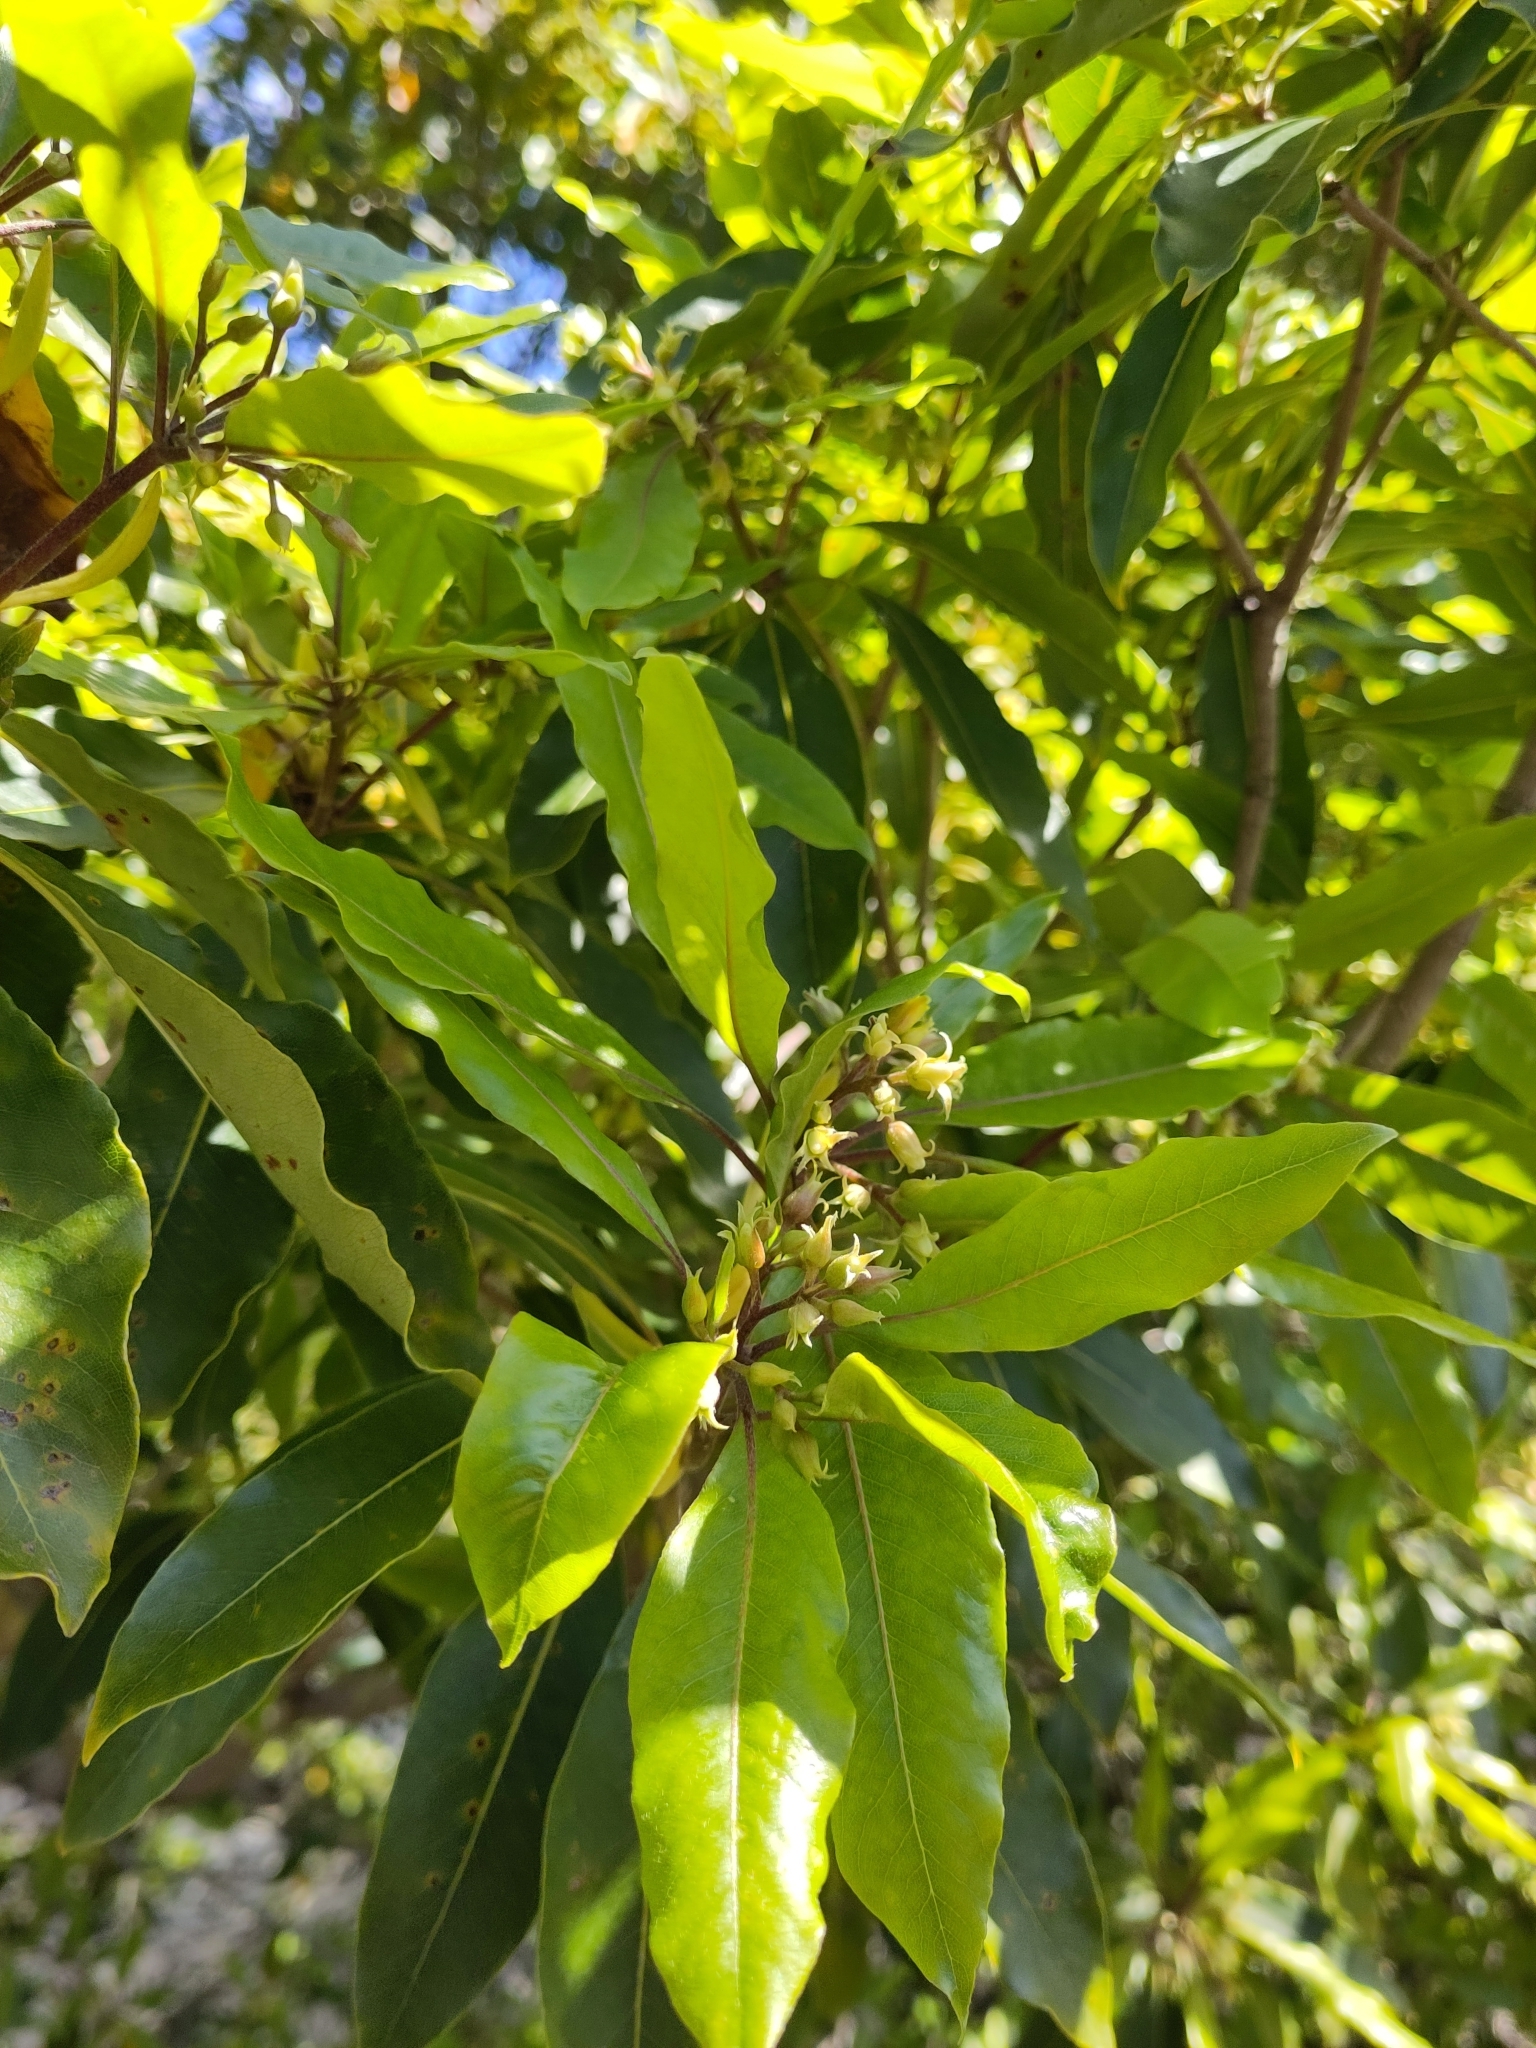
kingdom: Plantae
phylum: Tracheophyta
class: Magnoliopsida
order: Apiales
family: Pittosporaceae
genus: Pittosporum
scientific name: Pittosporum undulatum
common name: Australian cheesewood
